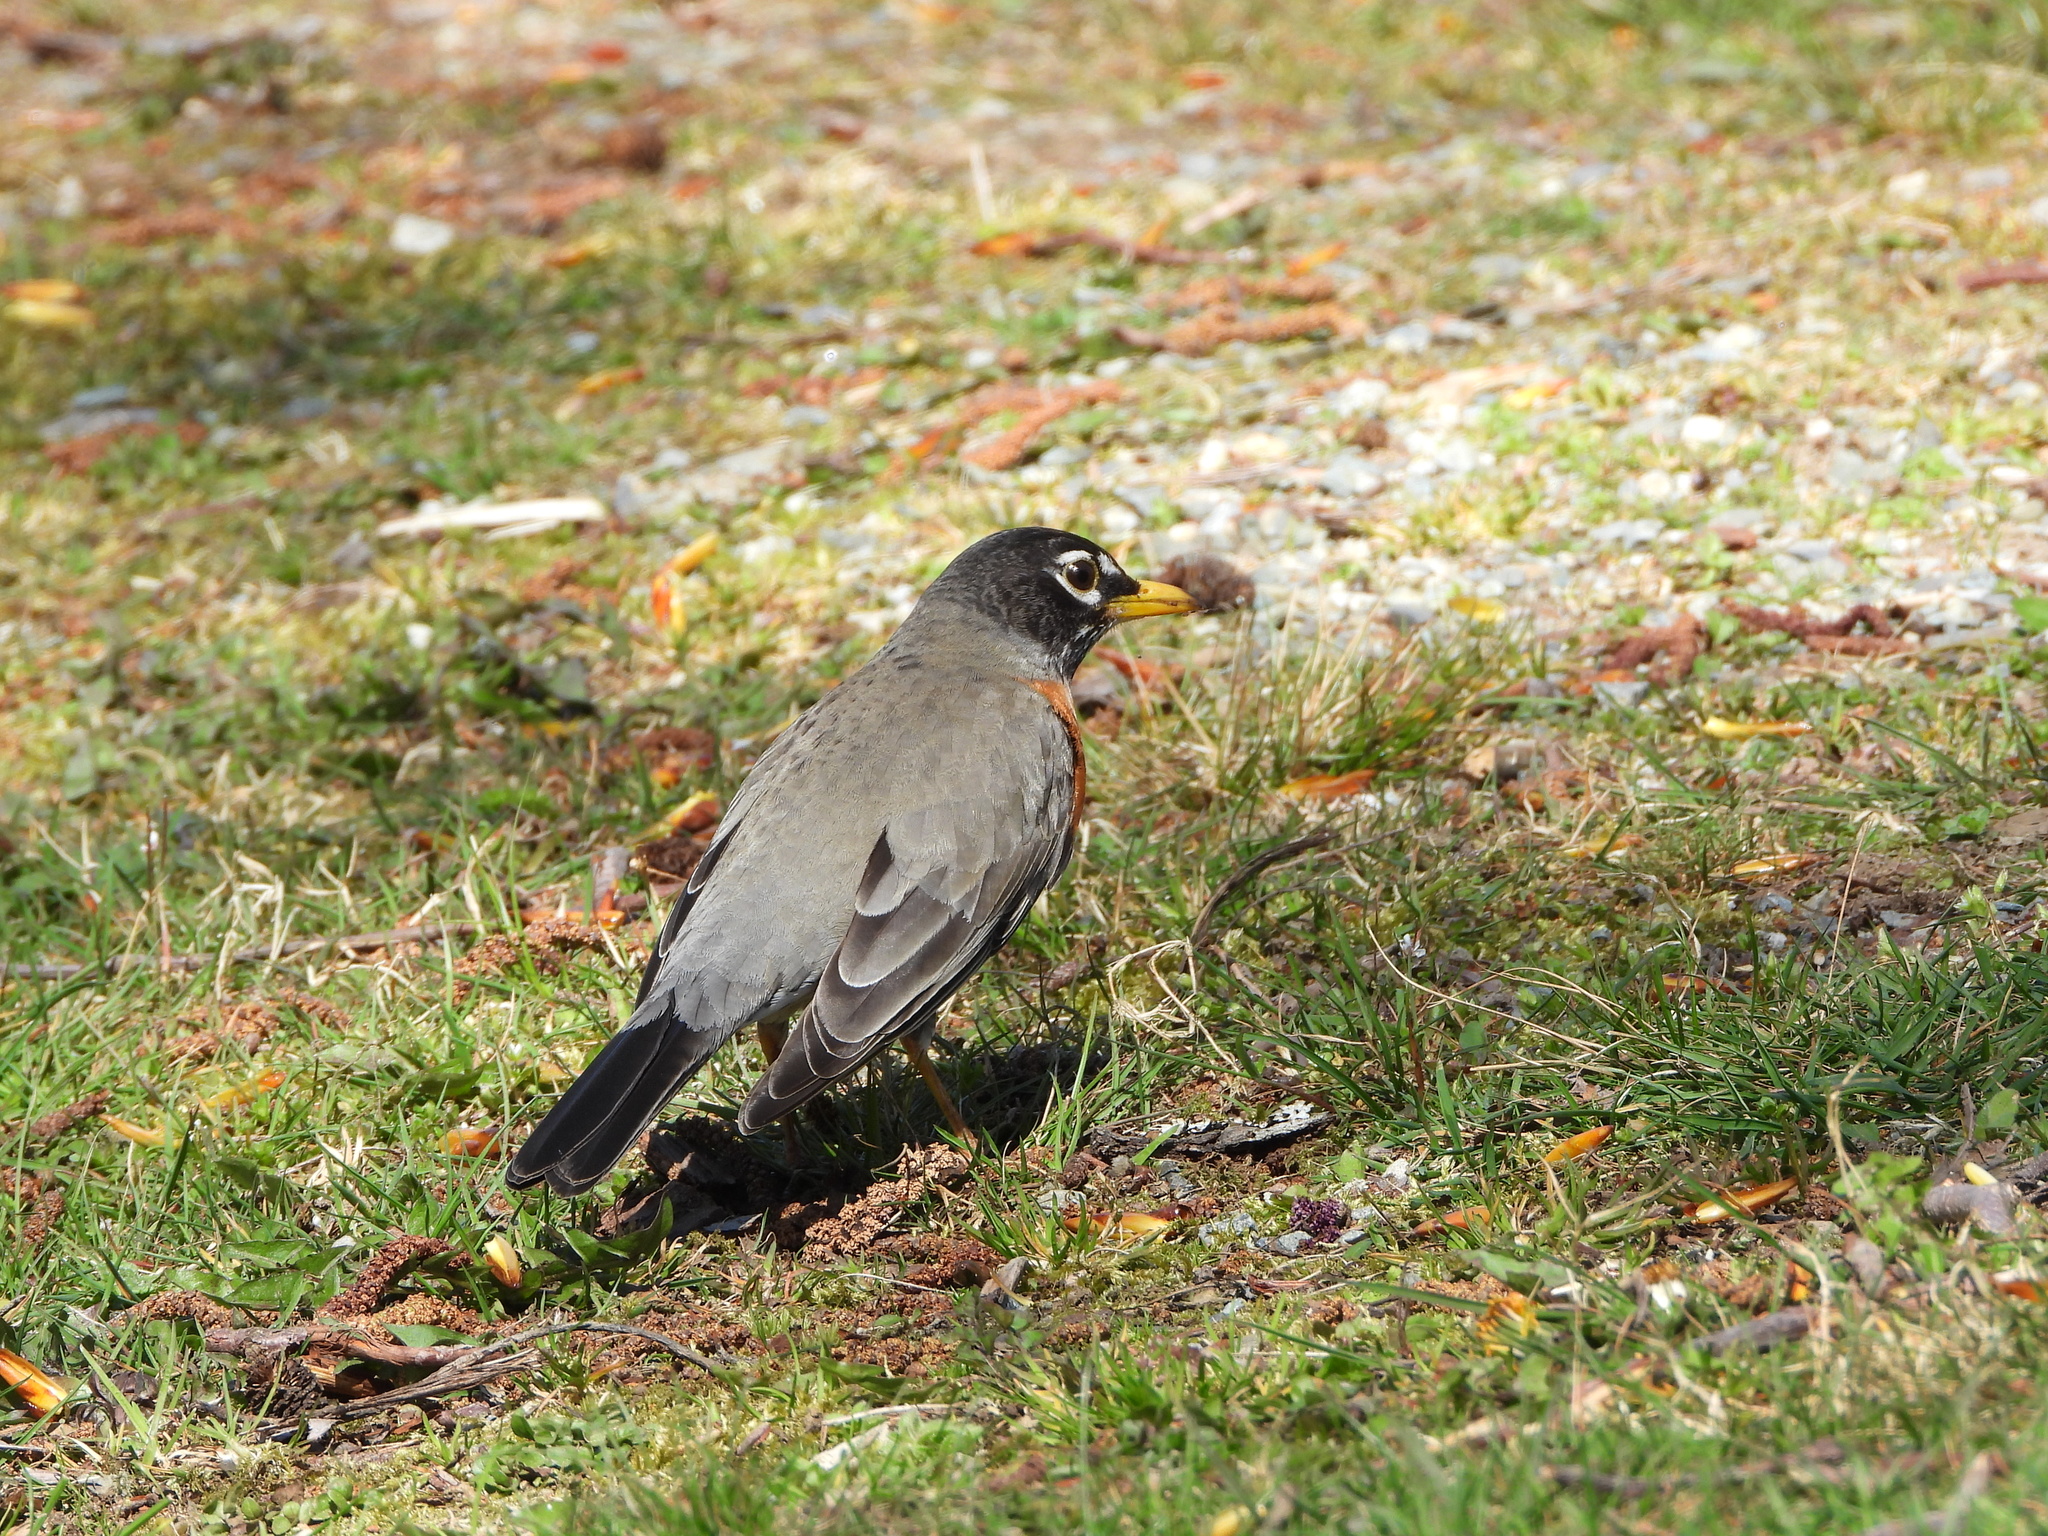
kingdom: Animalia
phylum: Chordata
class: Aves
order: Passeriformes
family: Turdidae
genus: Turdus
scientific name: Turdus migratorius
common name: American robin
